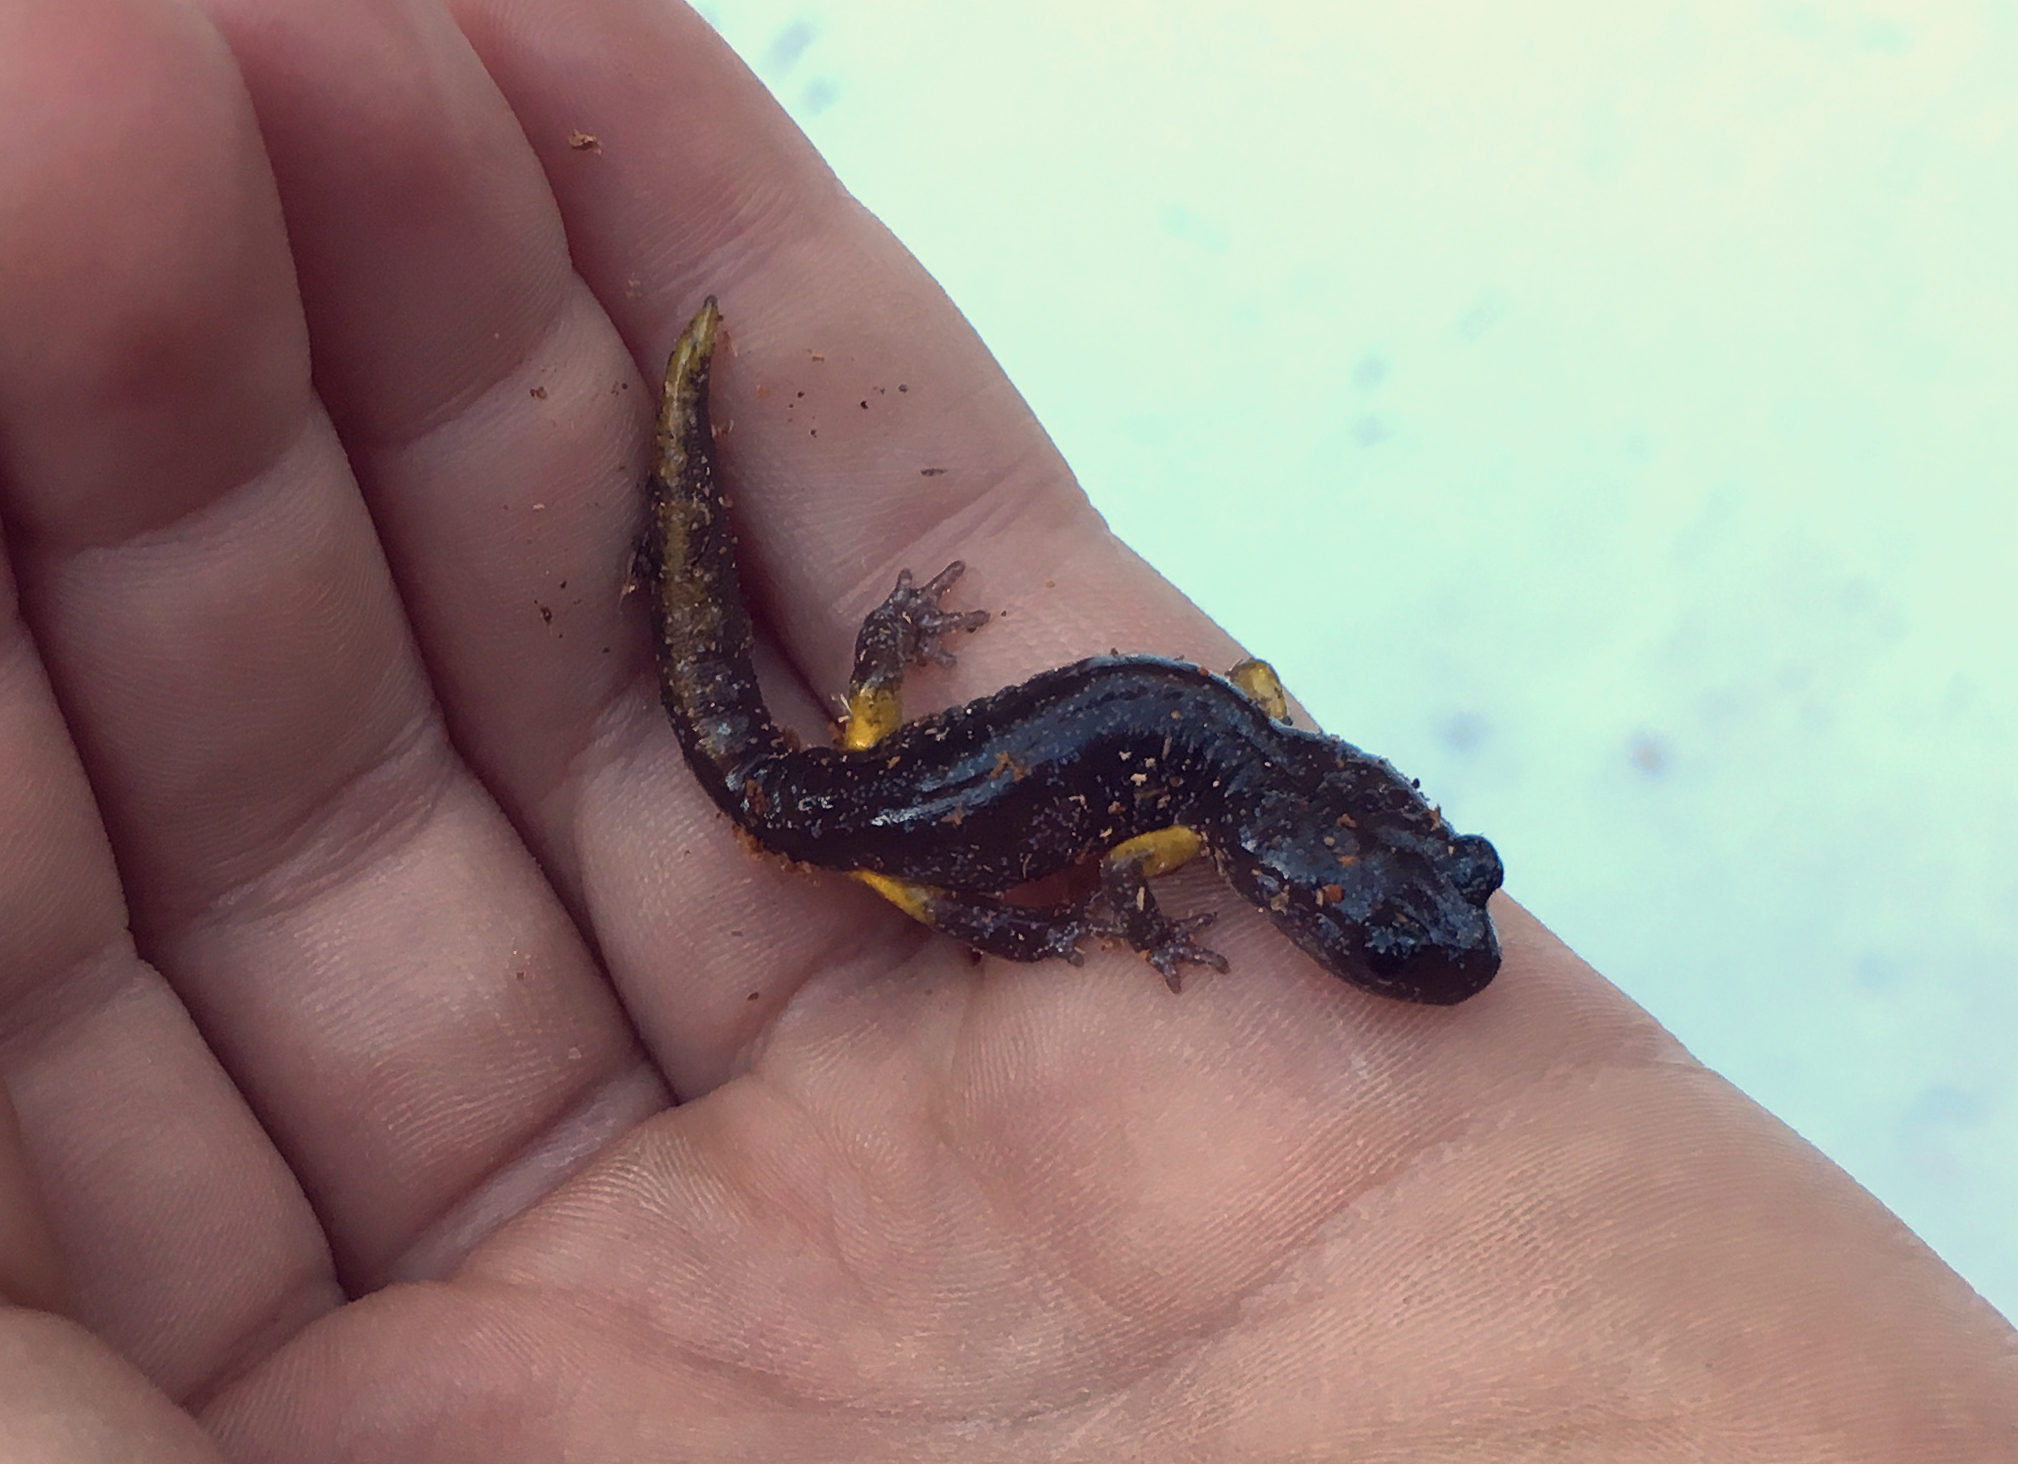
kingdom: Animalia
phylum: Chordata
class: Amphibia
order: Caudata
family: Plethodontidae
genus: Ensatina
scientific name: Ensatina eschscholtzii
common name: Ensatina
